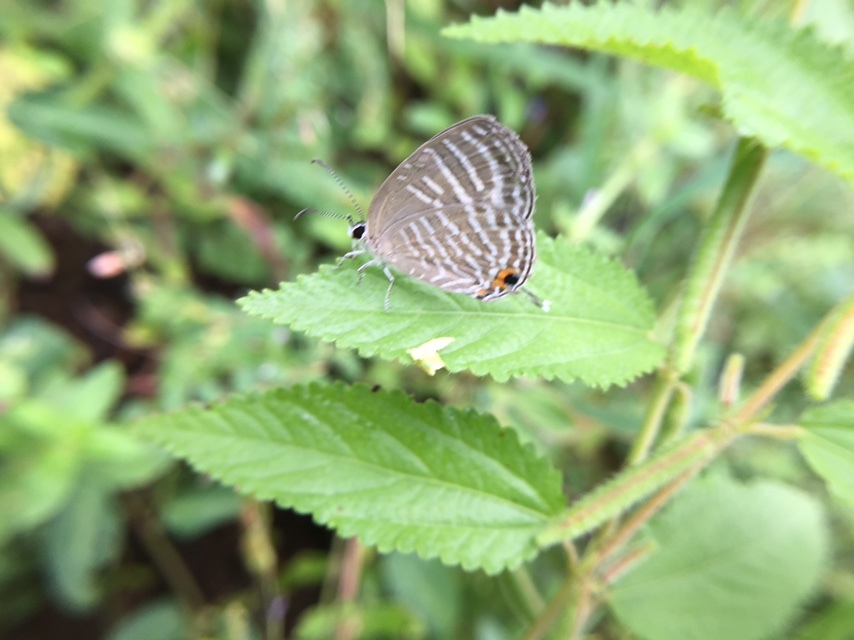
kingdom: Animalia
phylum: Arthropoda
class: Insecta
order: Lepidoptera
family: Lycaenidae
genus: Jamides
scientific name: Jamides celeno
